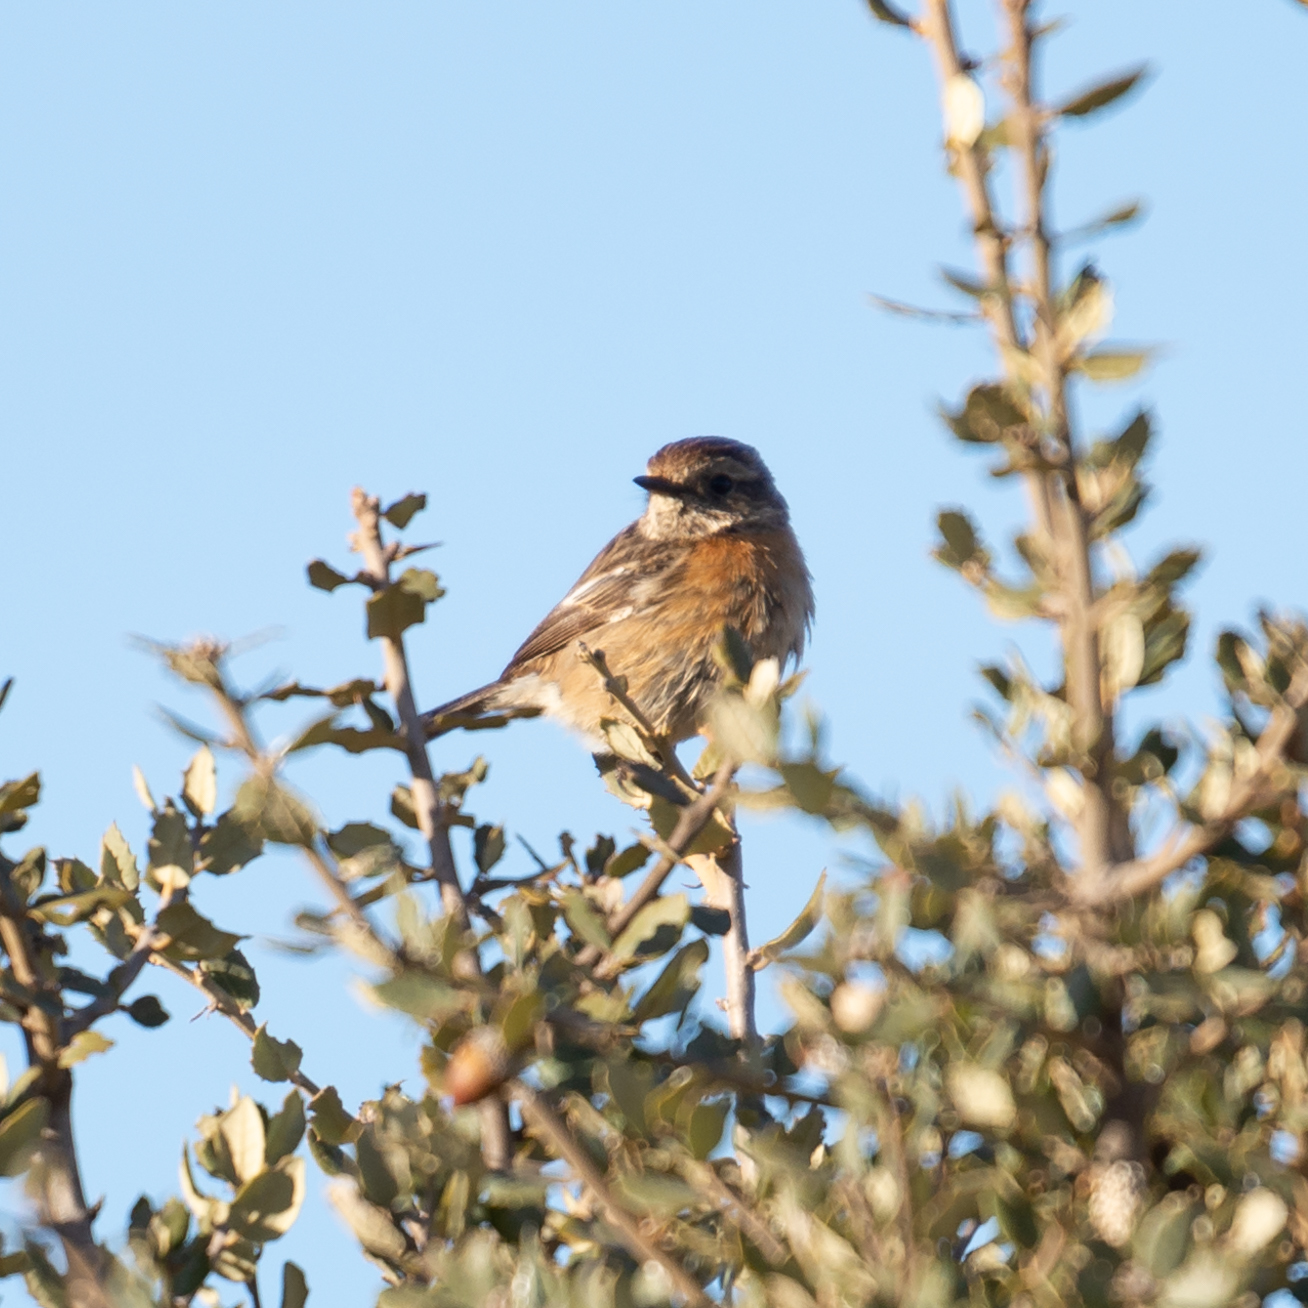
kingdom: Animalia
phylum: Chordata
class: Aves
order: Passeriformes
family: Muscicapidae
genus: Saxicola
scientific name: Saxicola rubicola
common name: European stonechat
